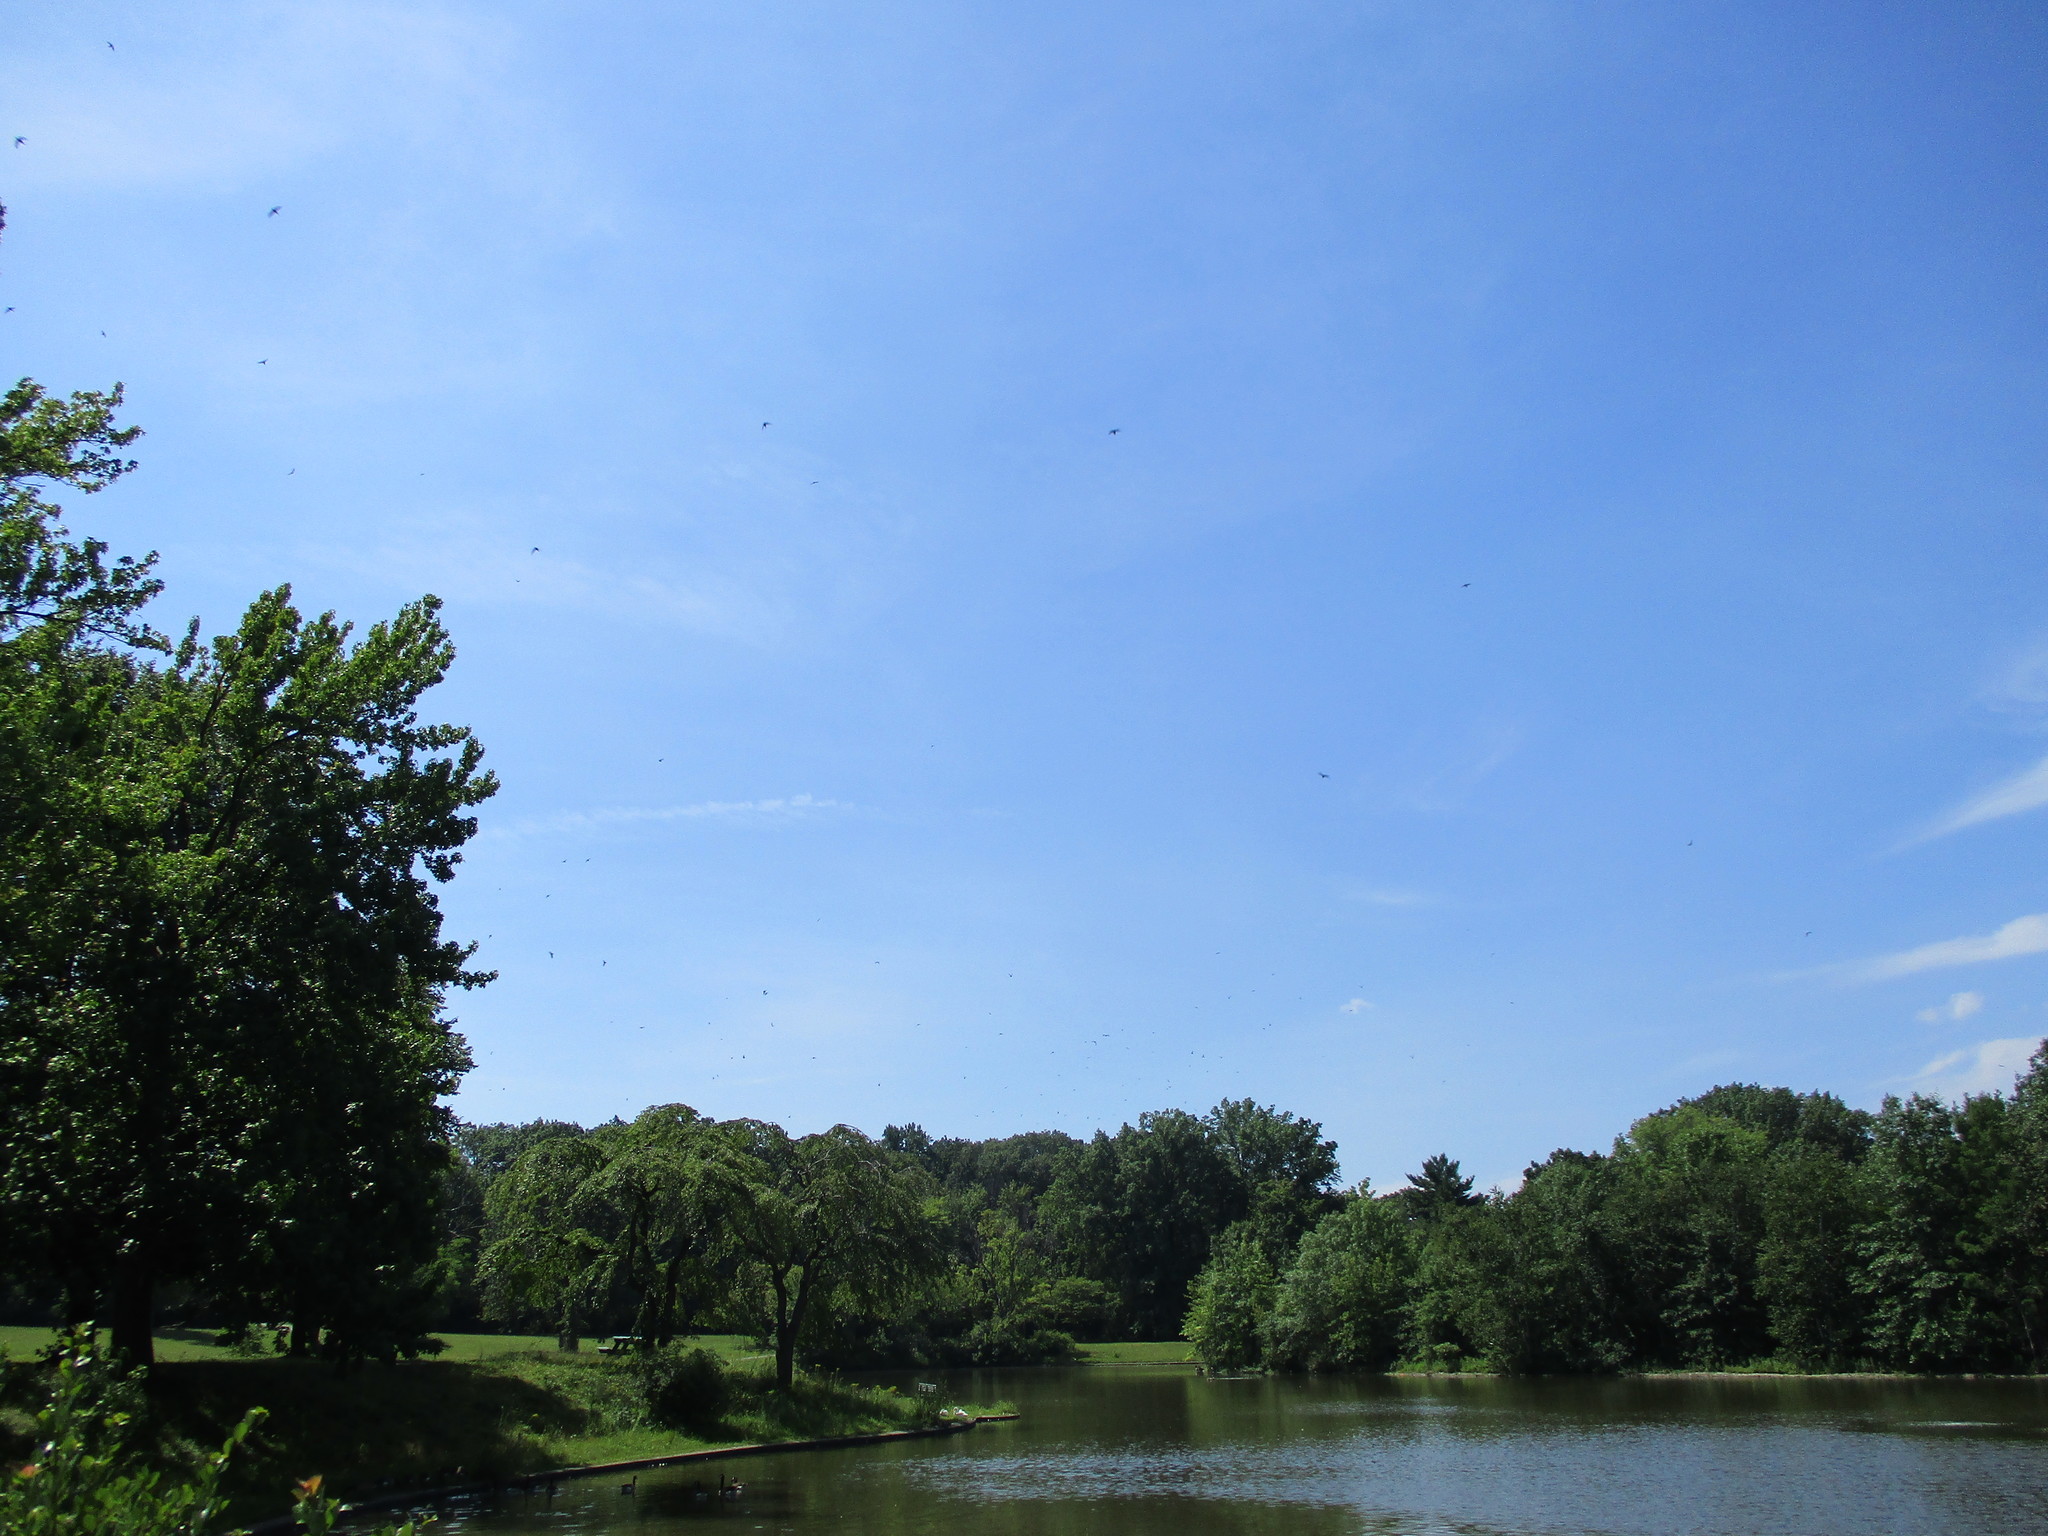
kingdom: Animalia
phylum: Chordata
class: Aves
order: Apodiformes
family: Apodidae
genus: Chaetura
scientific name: Chaetura pelagica
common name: Chimney swift
